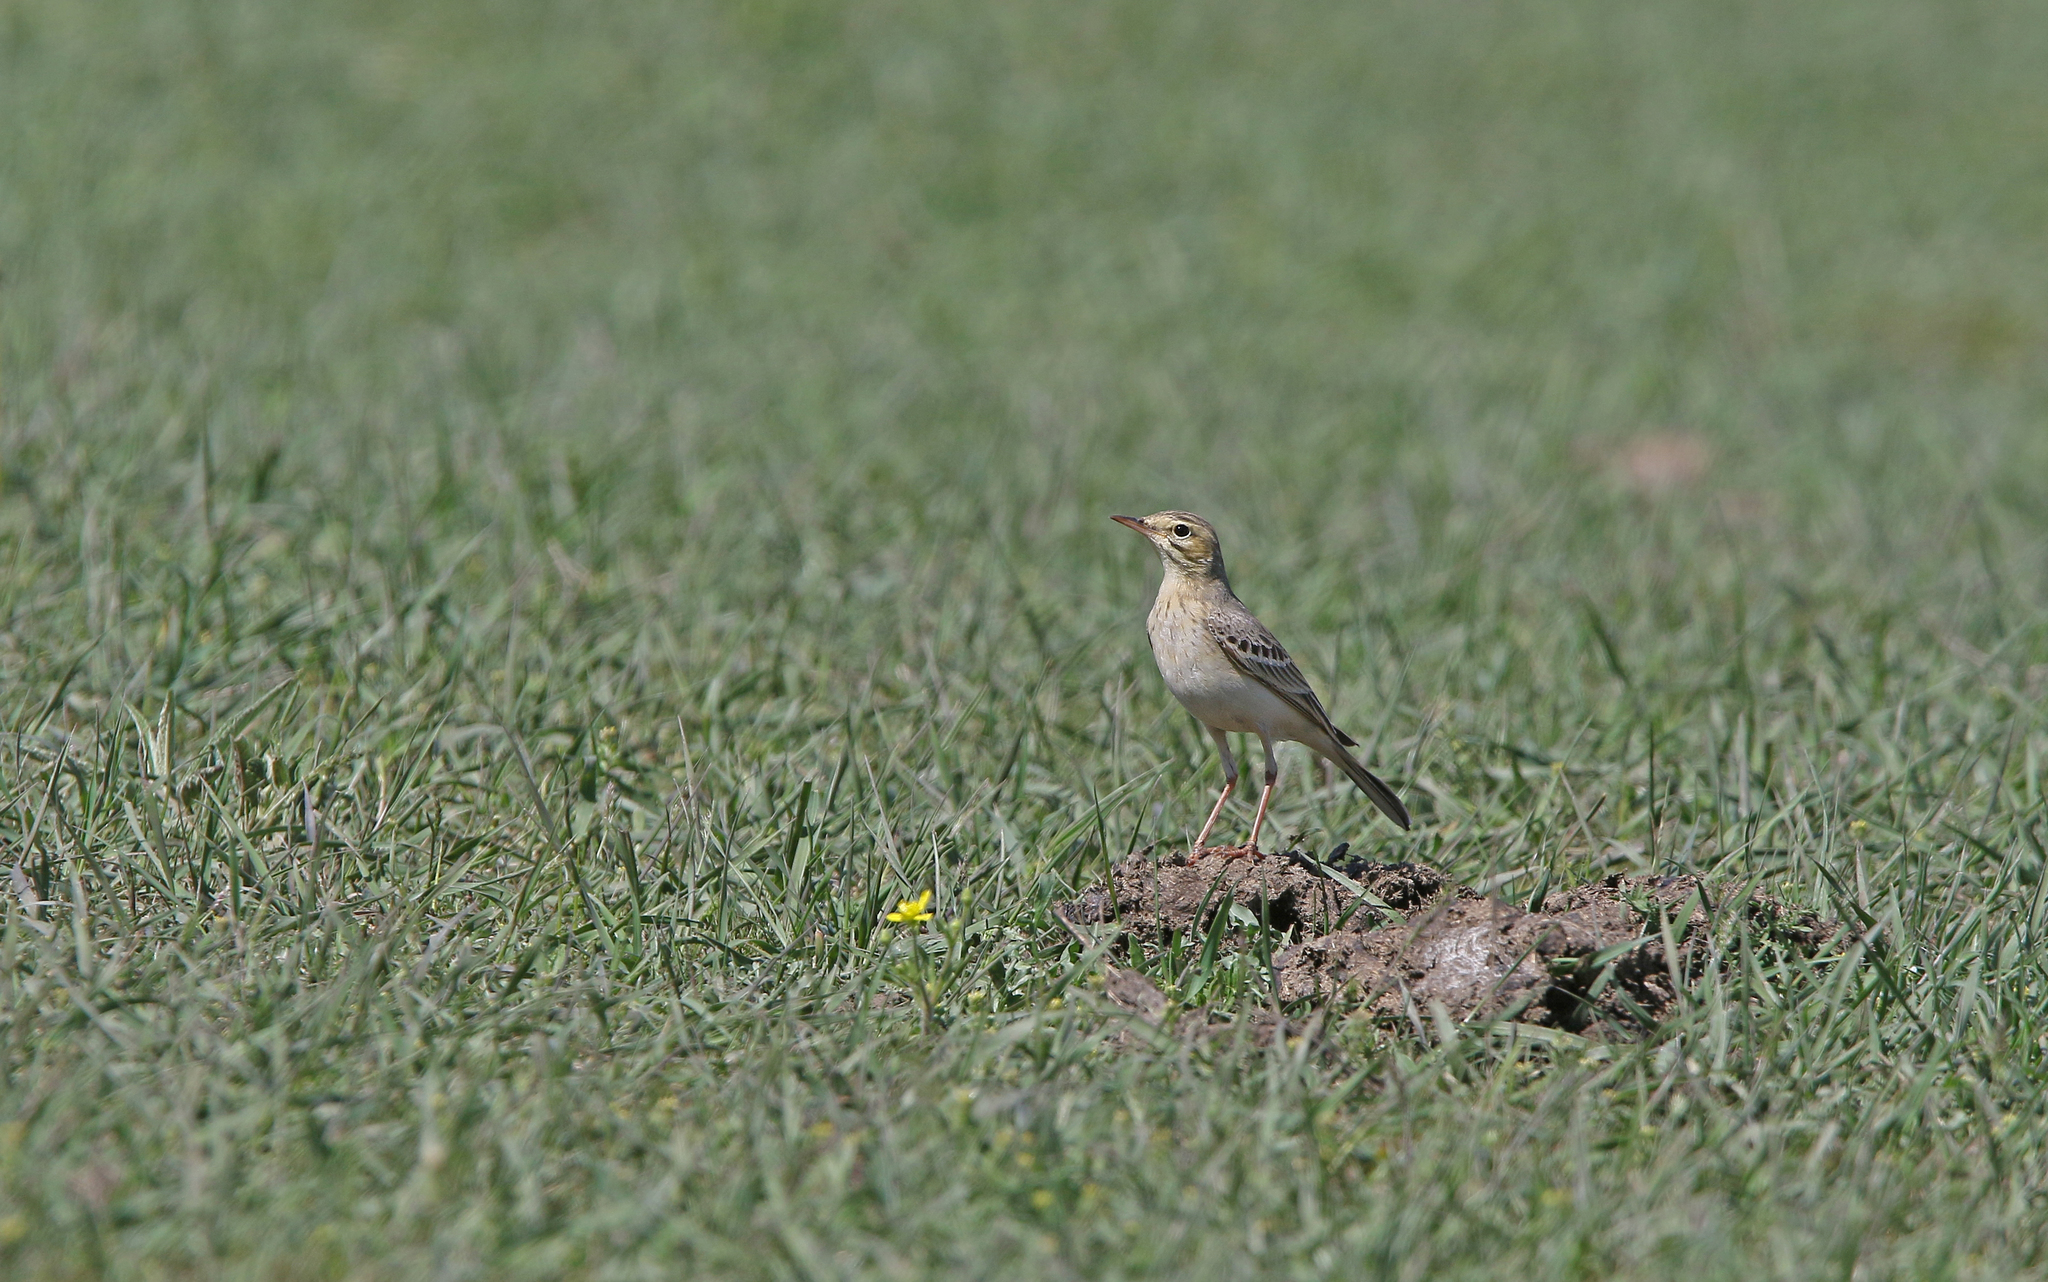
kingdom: Animalia
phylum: Chordata
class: Aves
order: Passeriformes
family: Motacillidae
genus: Anthus
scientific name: Anthus campestris
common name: Tawny pipit
